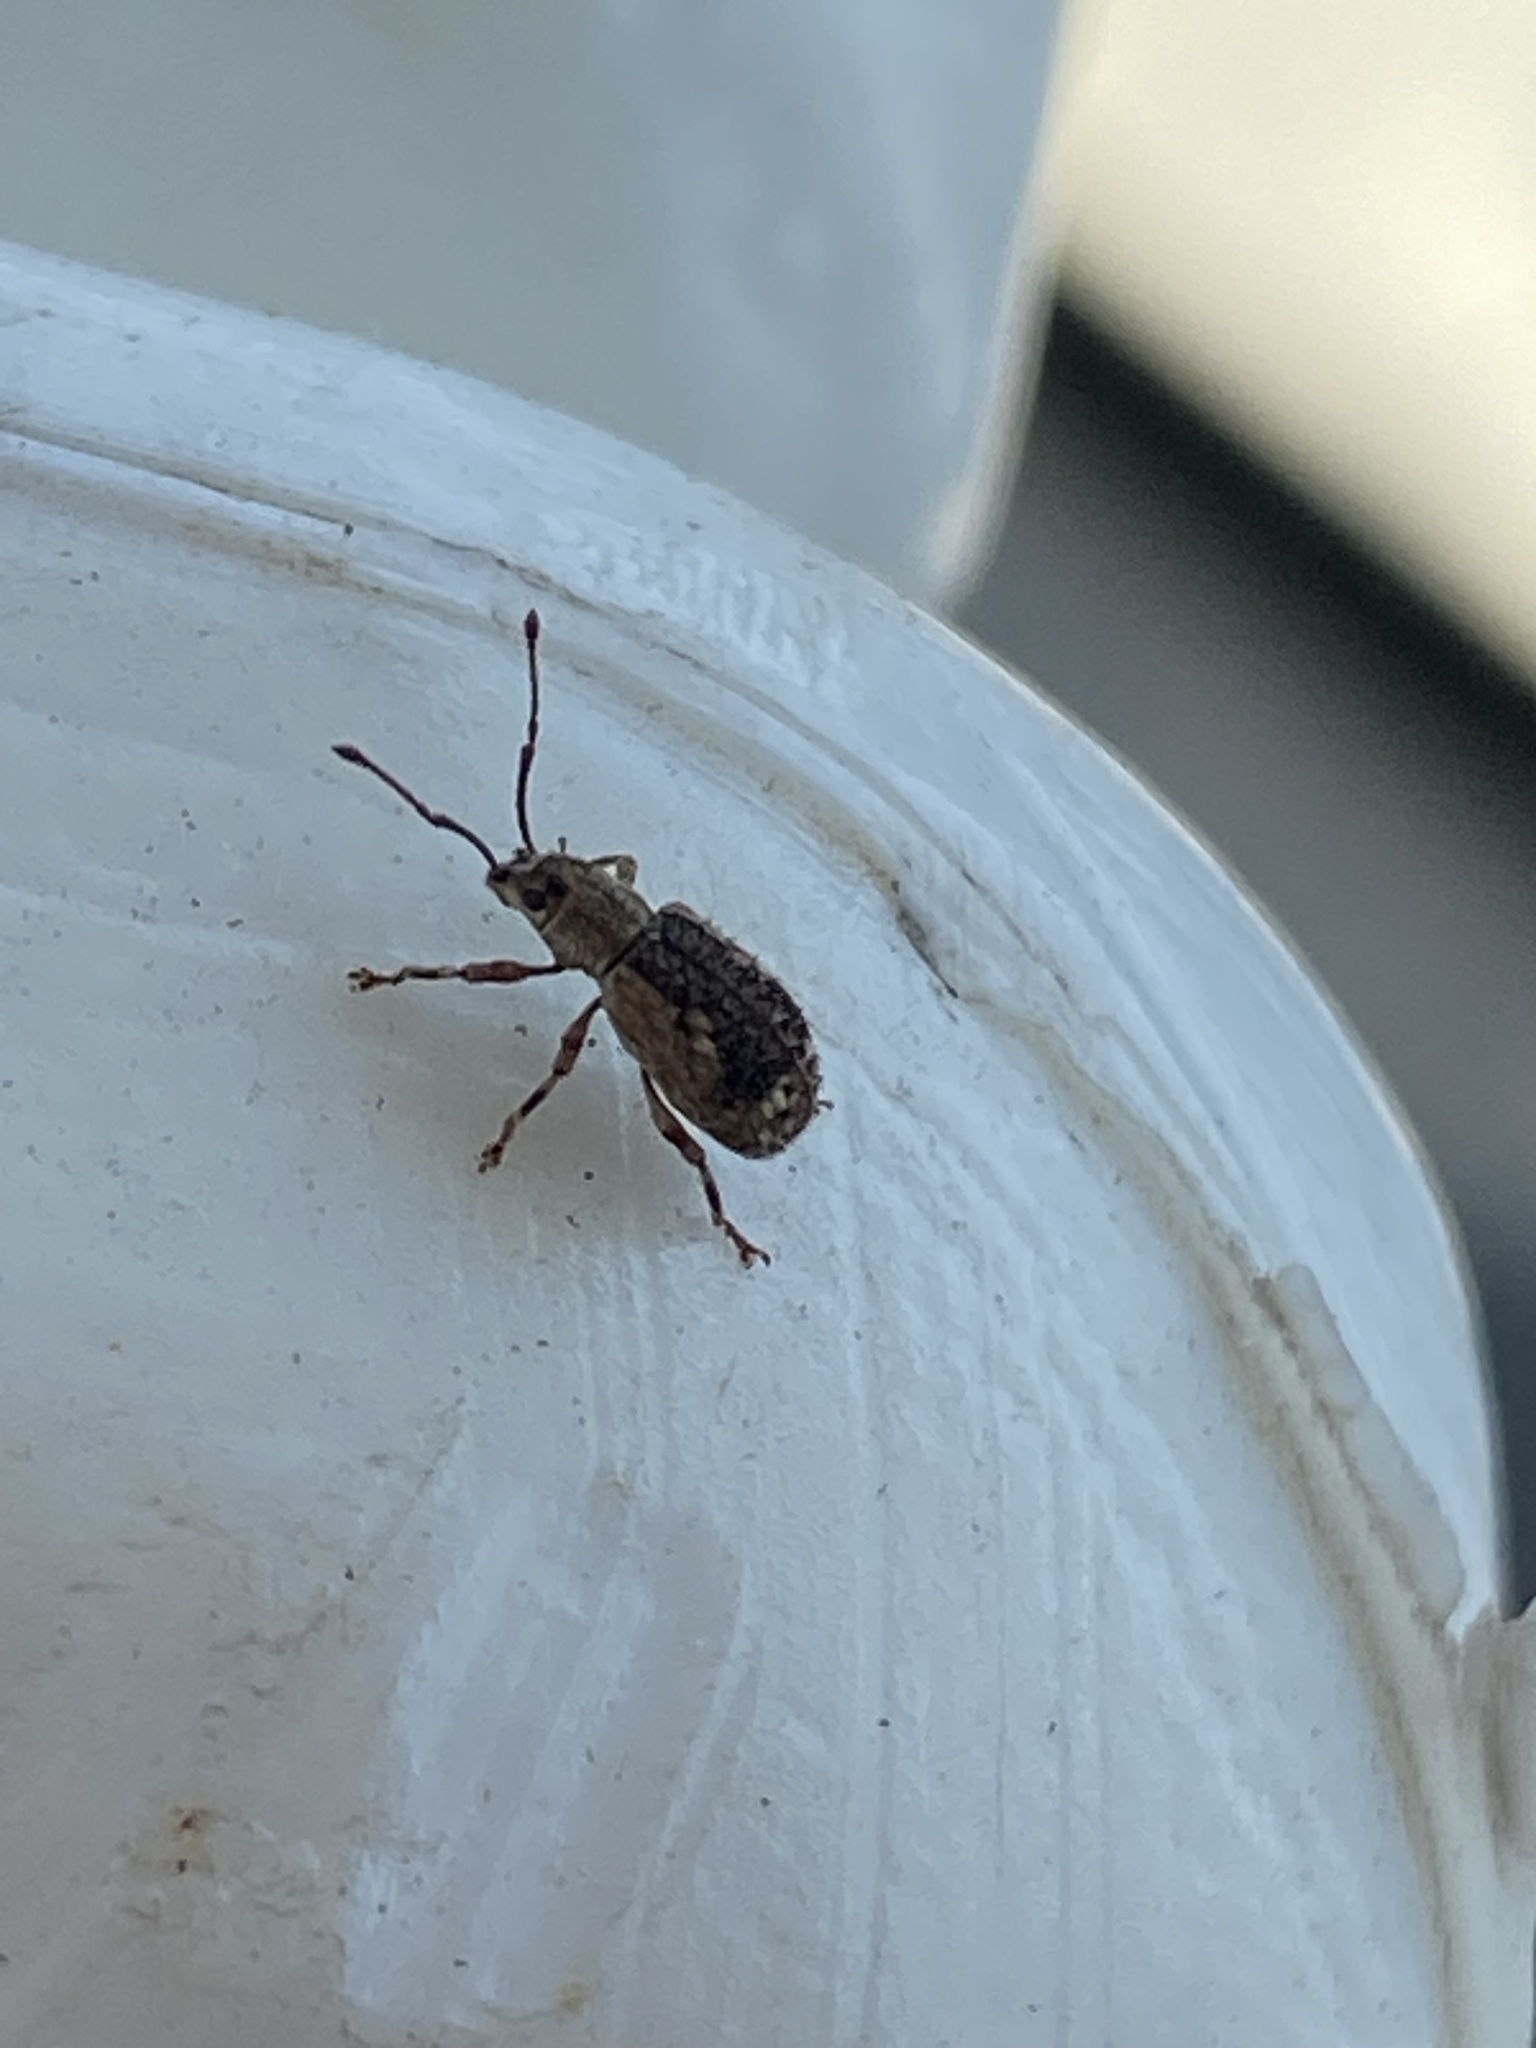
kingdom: Animalia
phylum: Arthropoda
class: Insecta
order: Coleoptera
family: Curculionidae
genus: Pseudoedophrys
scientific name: Pseudoedophrys hilleri
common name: Weevil
